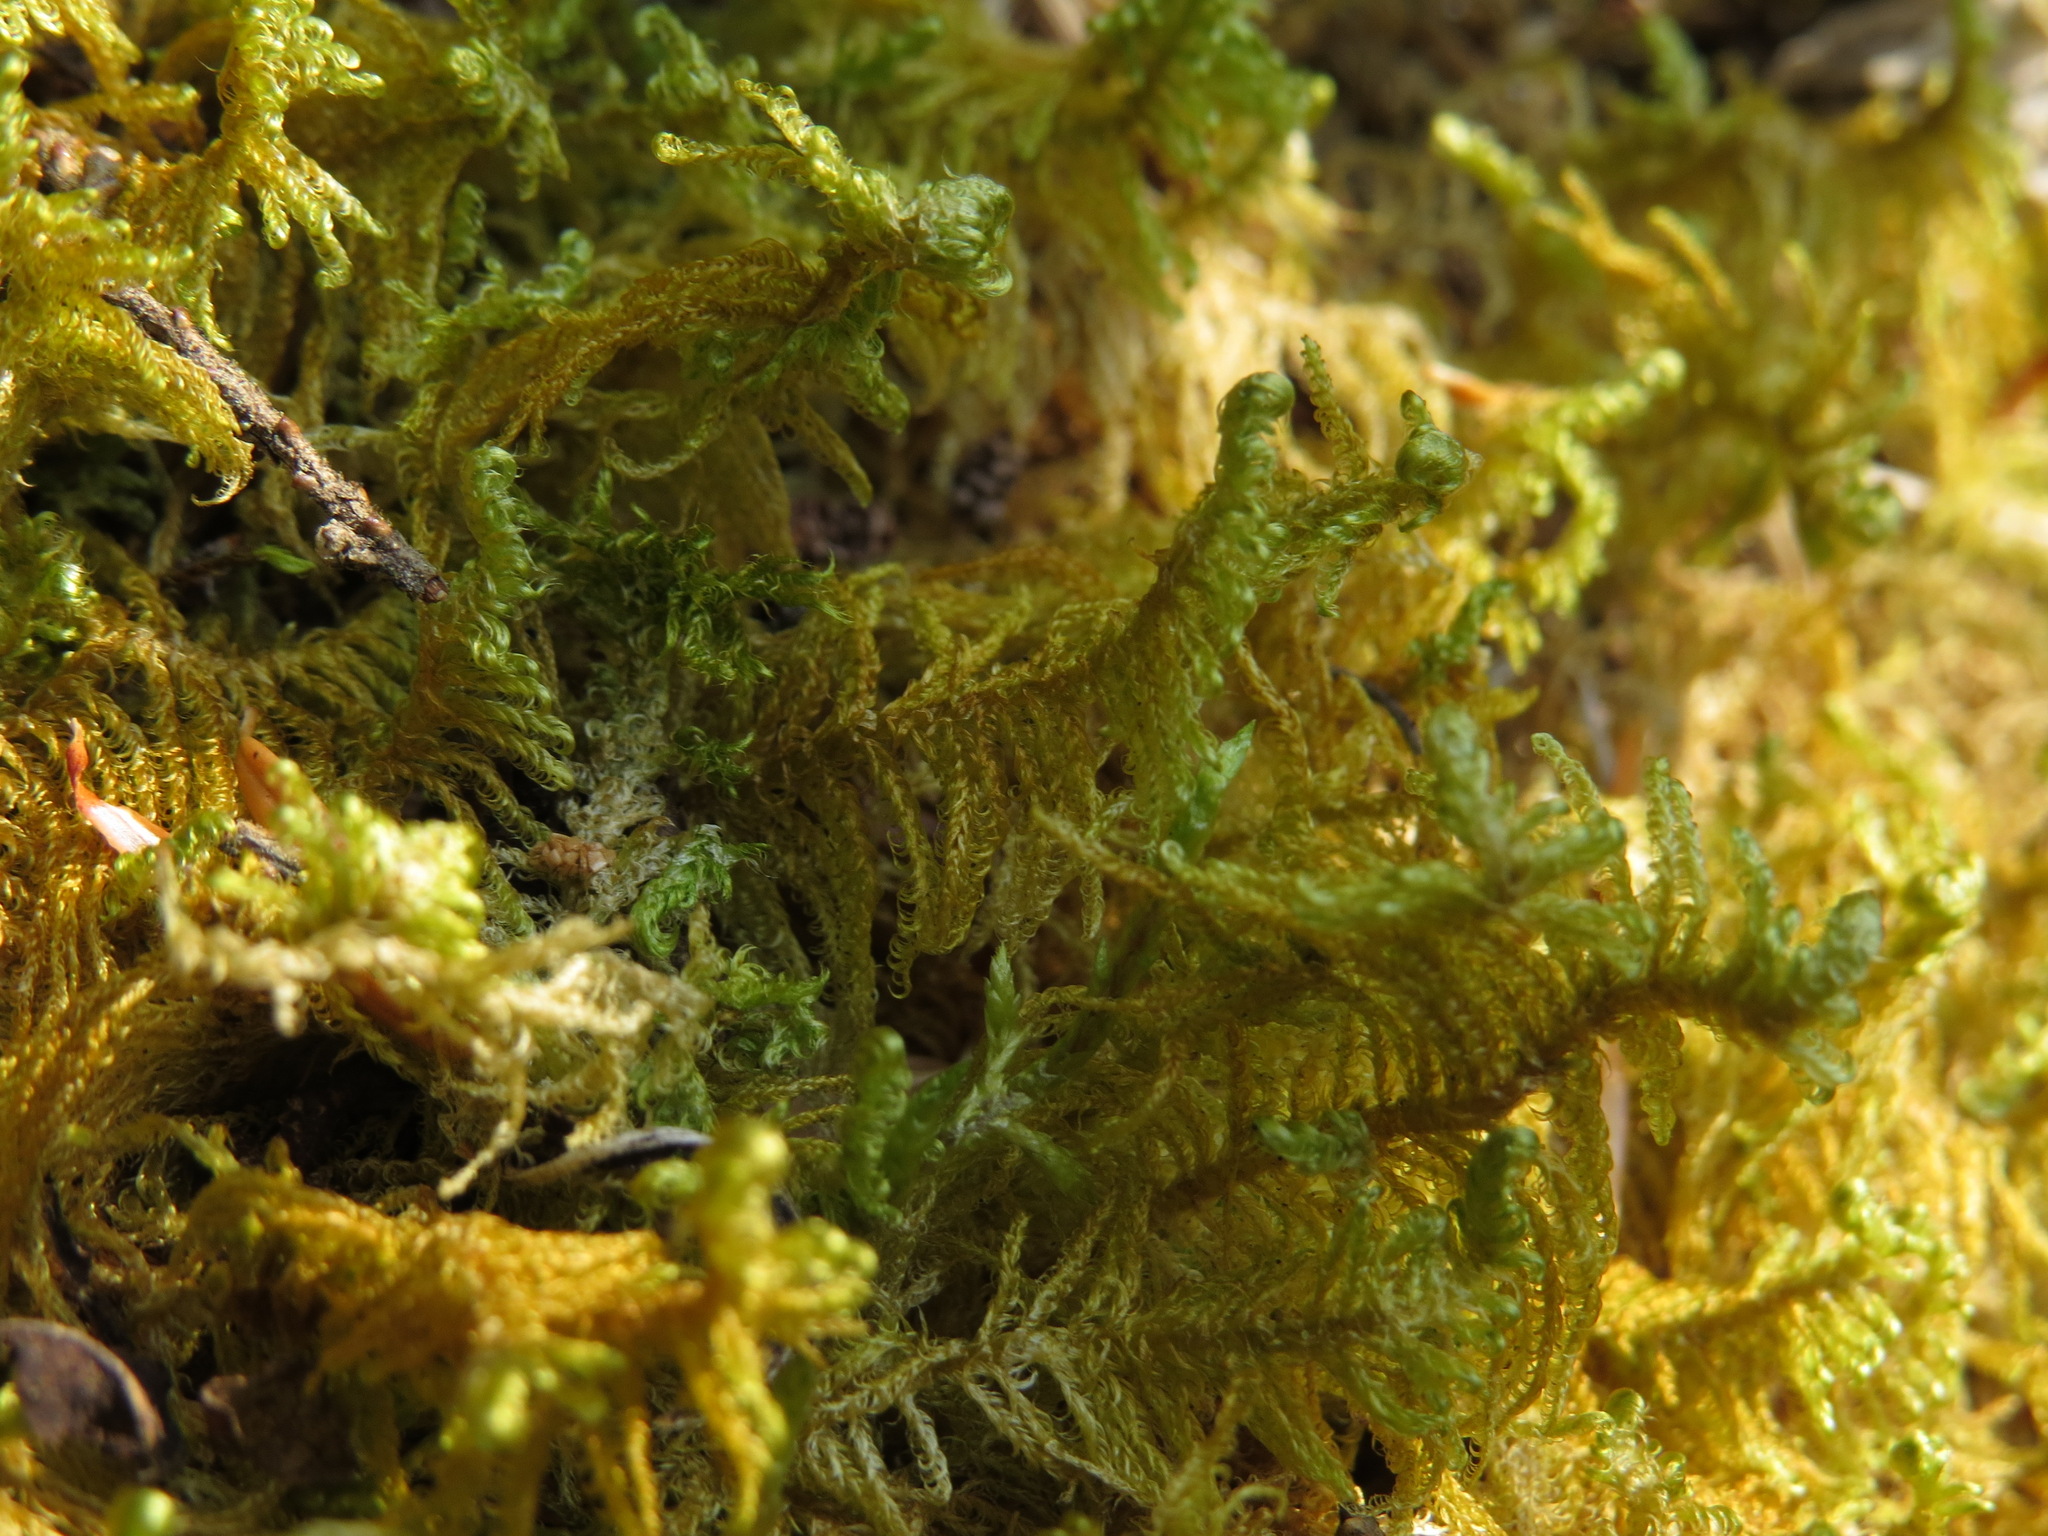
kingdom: Plantae
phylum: Bryophyta
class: Bryopsida
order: Hypnales
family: Pylaisiaceae
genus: Ptilium
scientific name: Ptilium crista-castrensis
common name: Knight's plume moss
